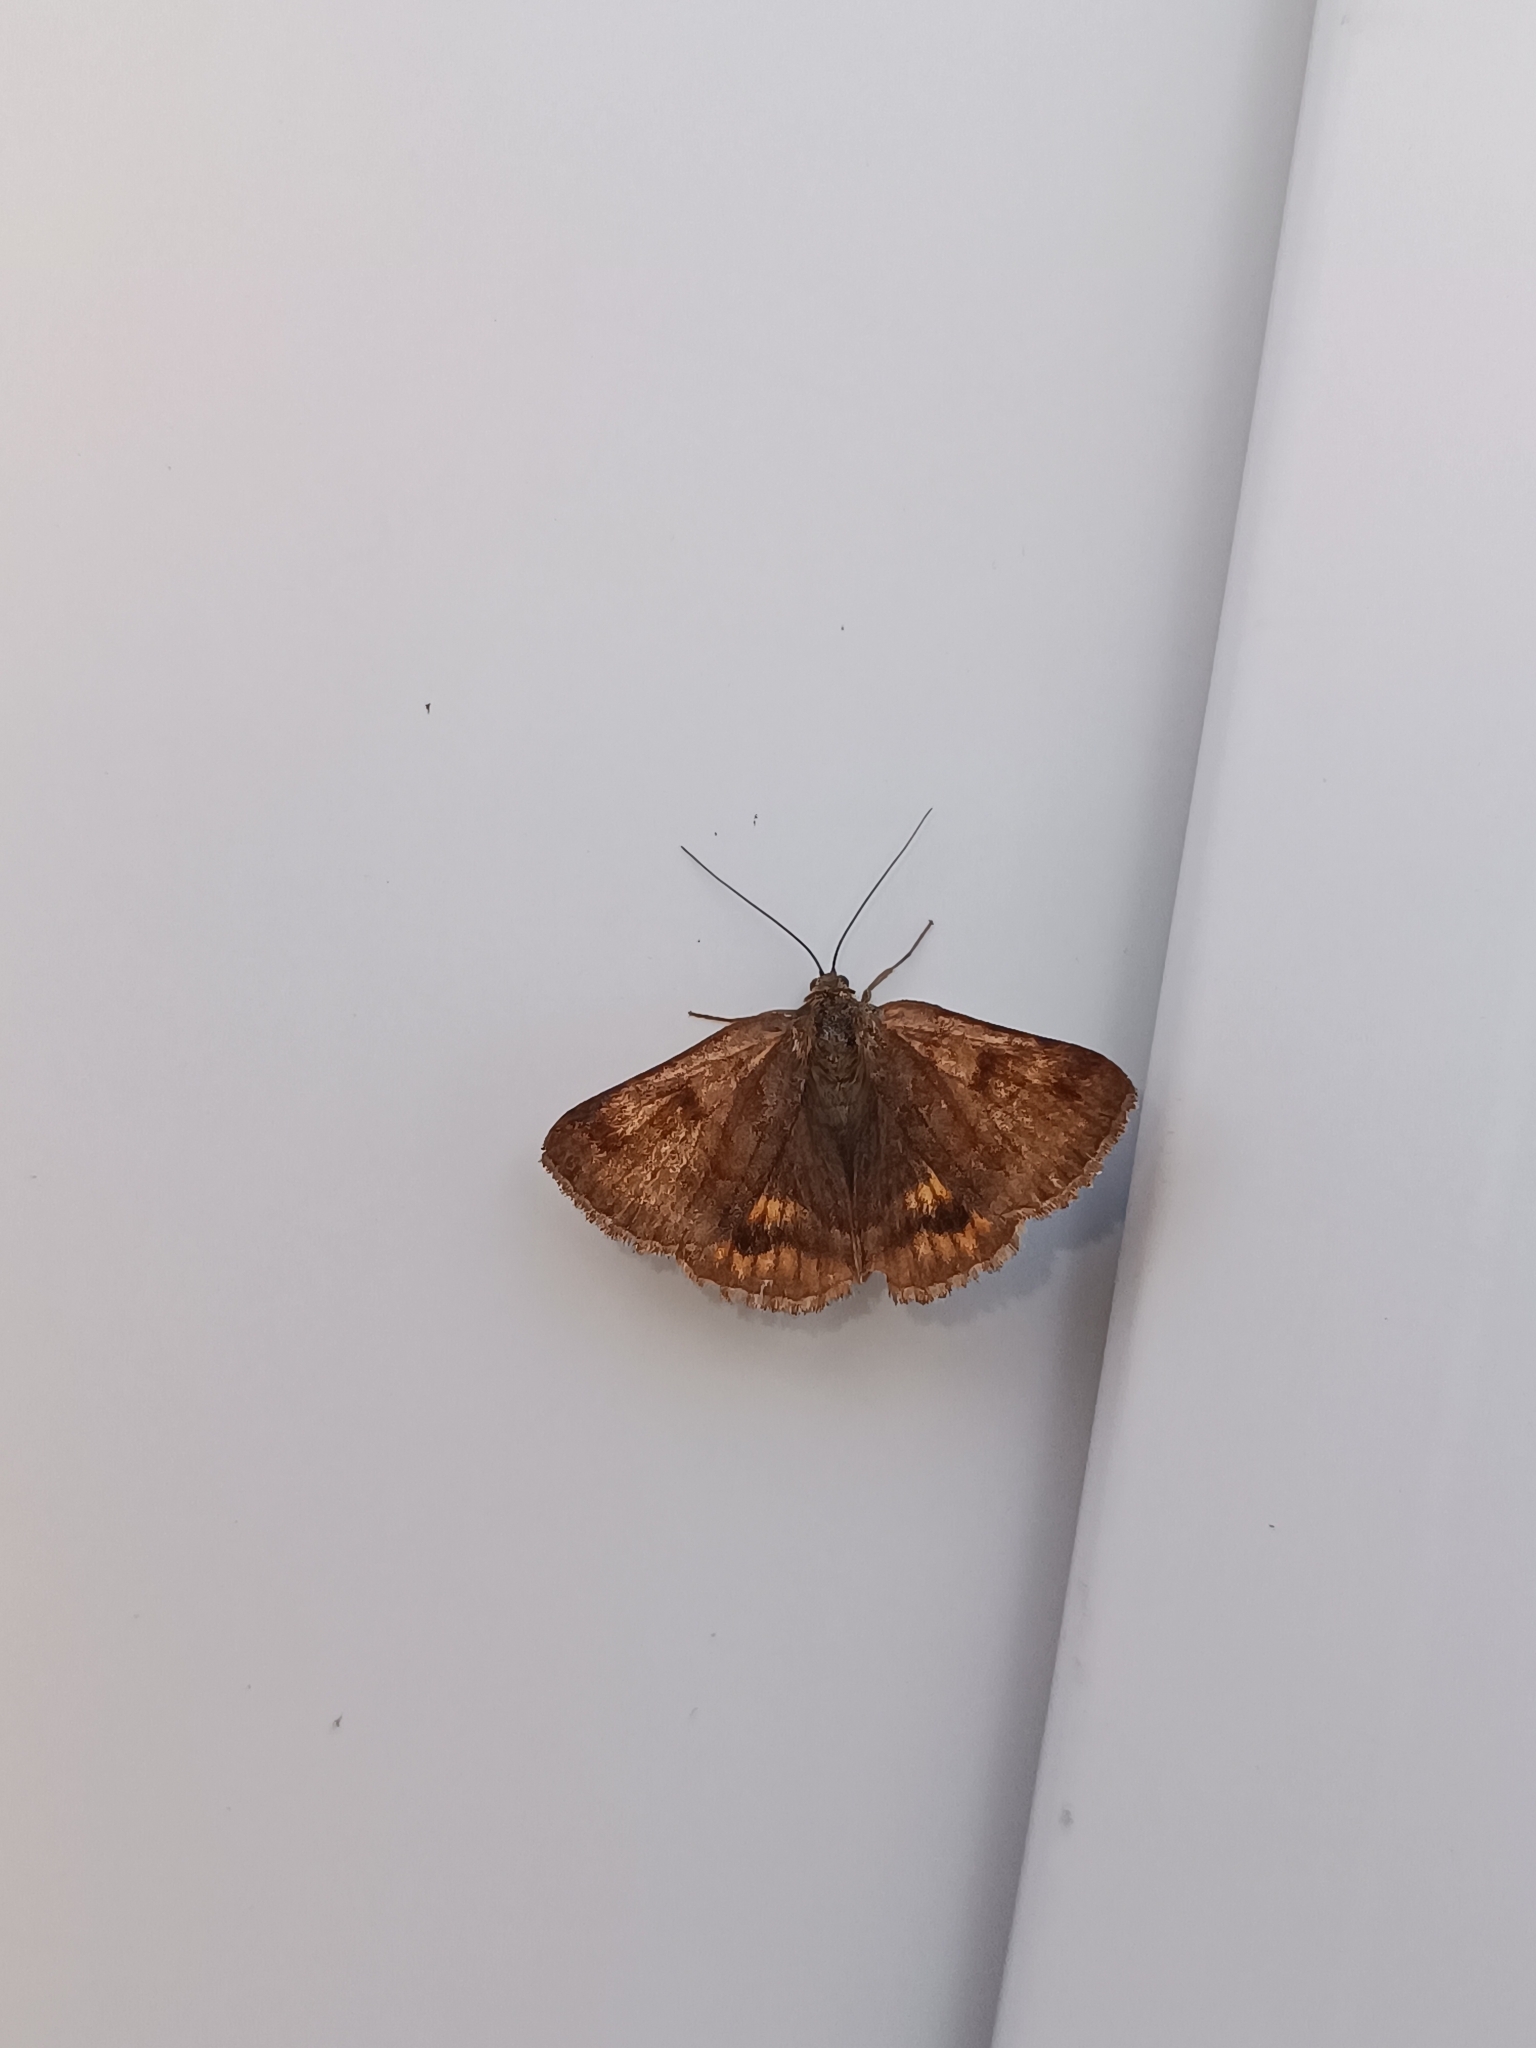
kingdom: Animalia
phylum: Arthropoda
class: Insecta
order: Lepidoptera
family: Erebidae
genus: Euclidia
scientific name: Euclidia glyphica
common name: Burnet companion
